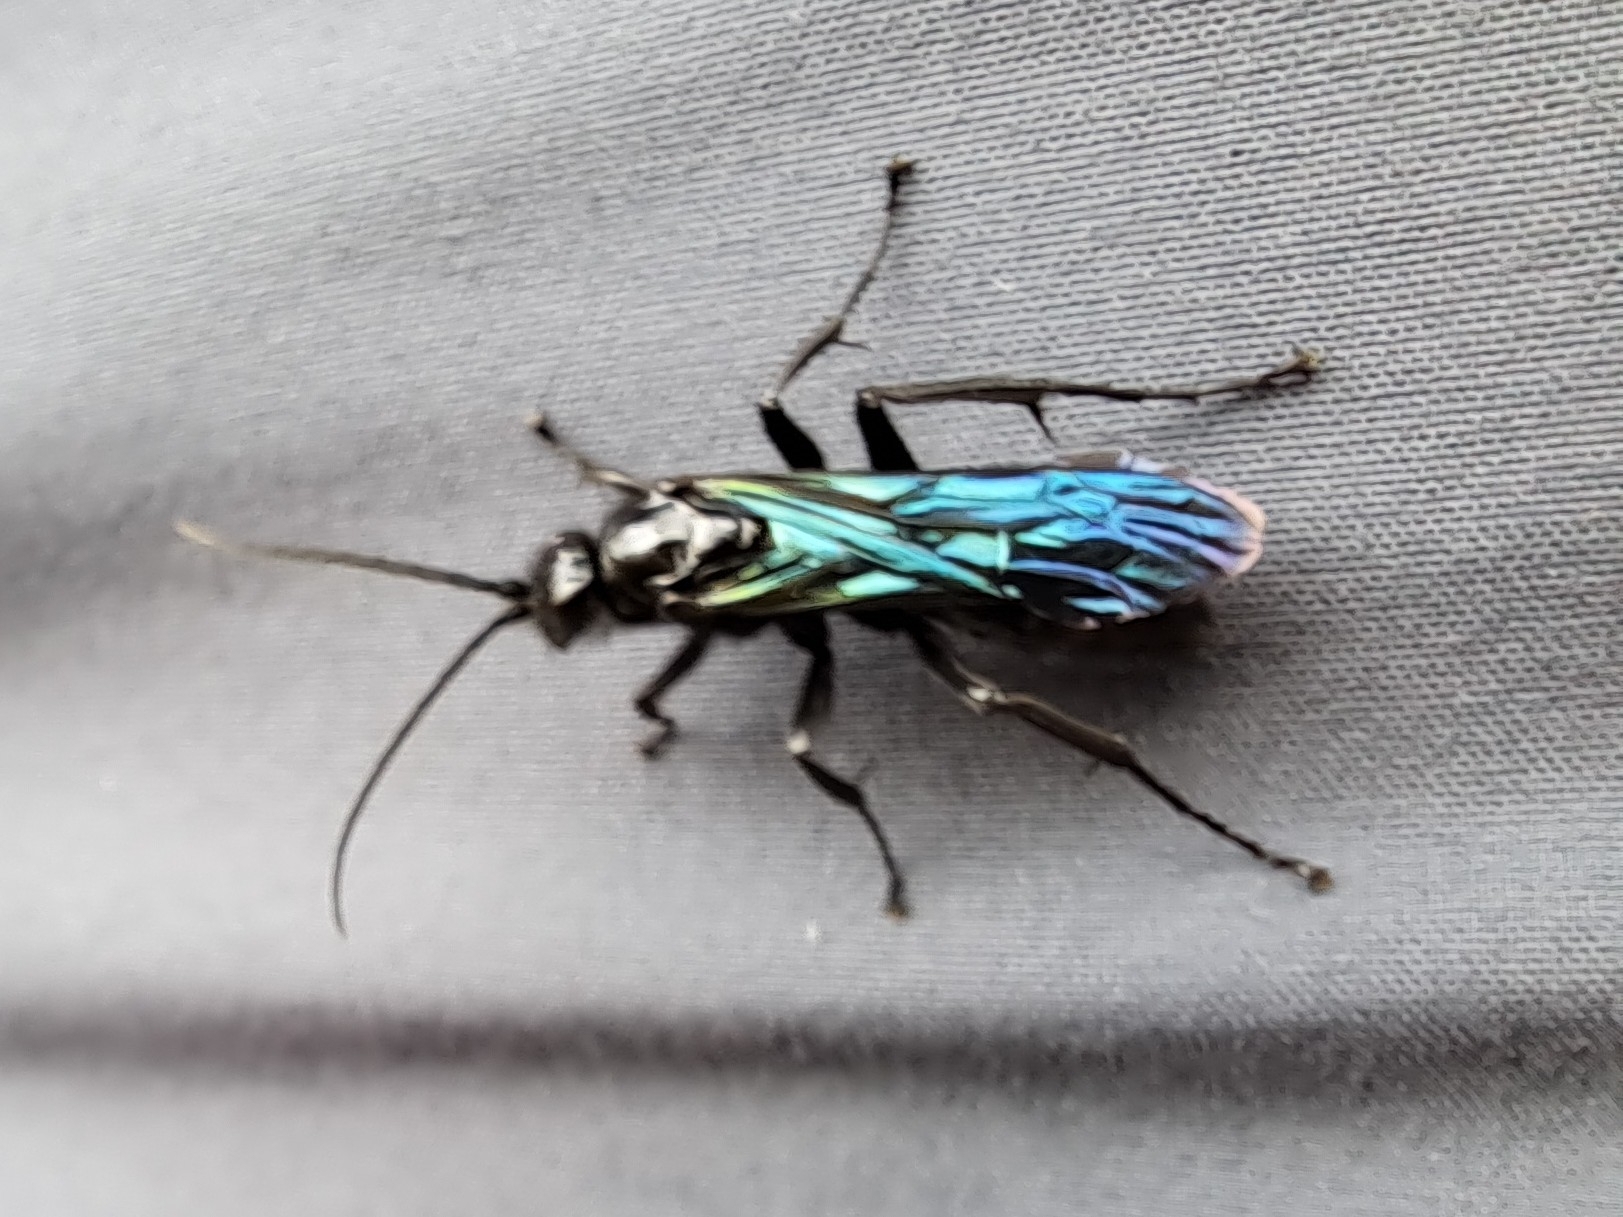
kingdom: Animalia
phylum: Arthropoda
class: Insecta
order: Hymenoptera
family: Pompilidae
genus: Priocnemis
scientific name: Priocnemis monachus
